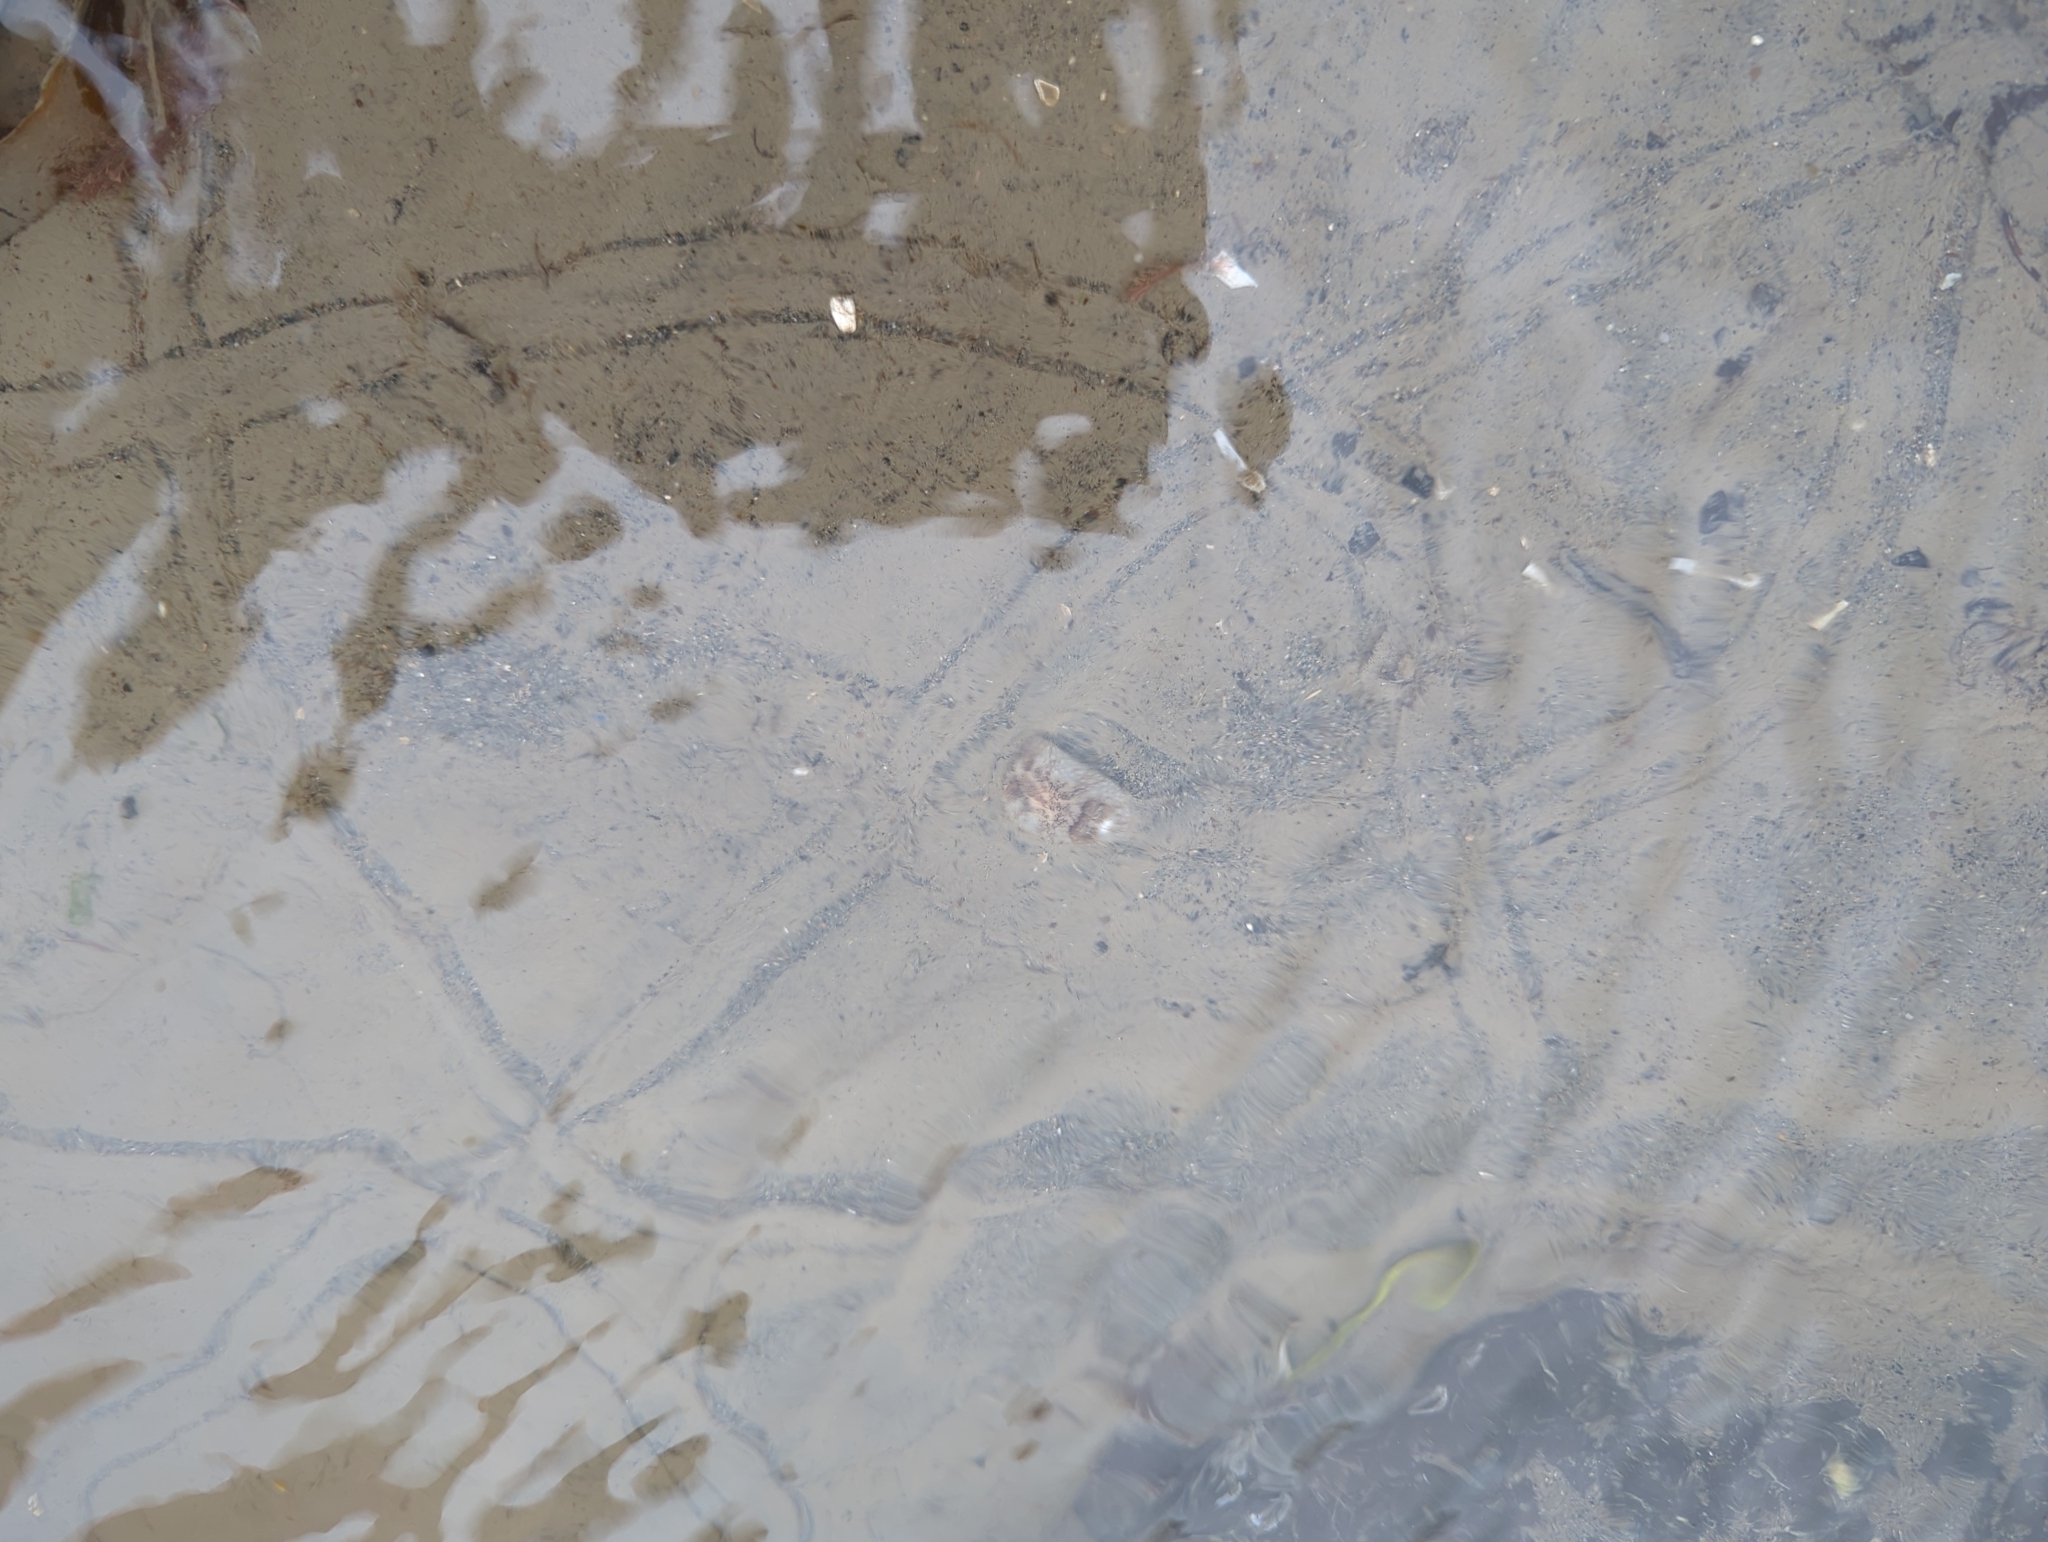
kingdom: Animalia
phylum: Mollusca
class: Gastropoda
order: Nudibranchia
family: Onchidorididae
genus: Onchidoris
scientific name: Onchidoris bilamellata
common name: Barnacle-eating onchidoris
